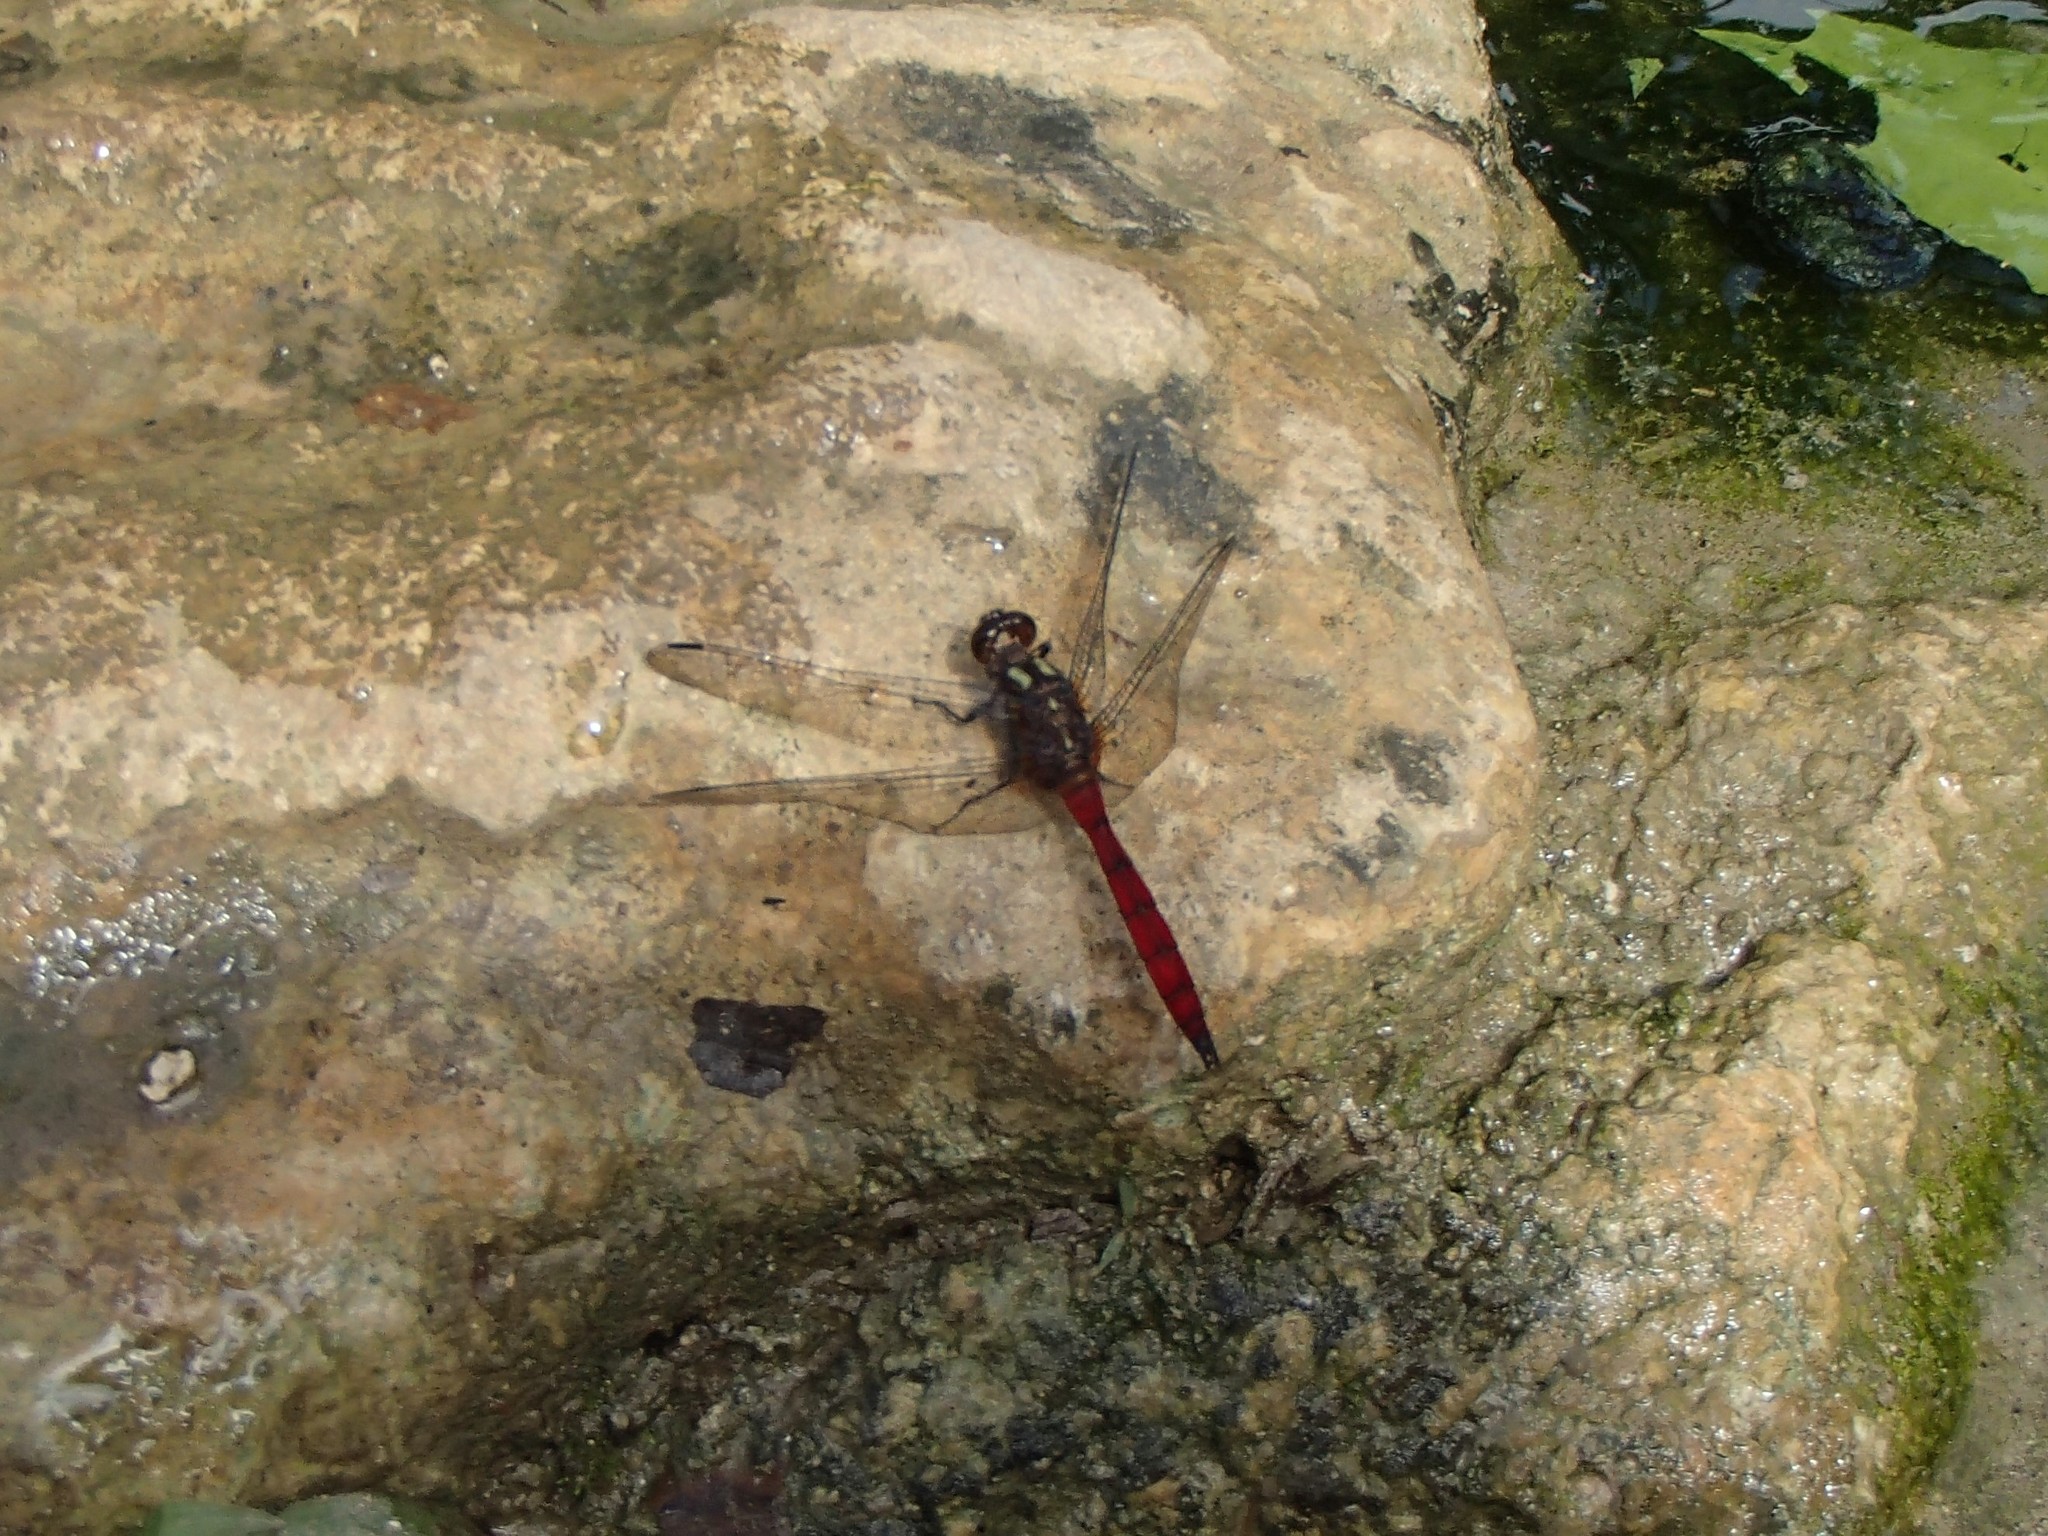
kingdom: Animalia
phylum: Arthropoda
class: Insecta
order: Odonata
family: Libellulidae
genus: Orthetrum
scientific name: Orthetrum villosovittatum
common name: Firery skimmer
